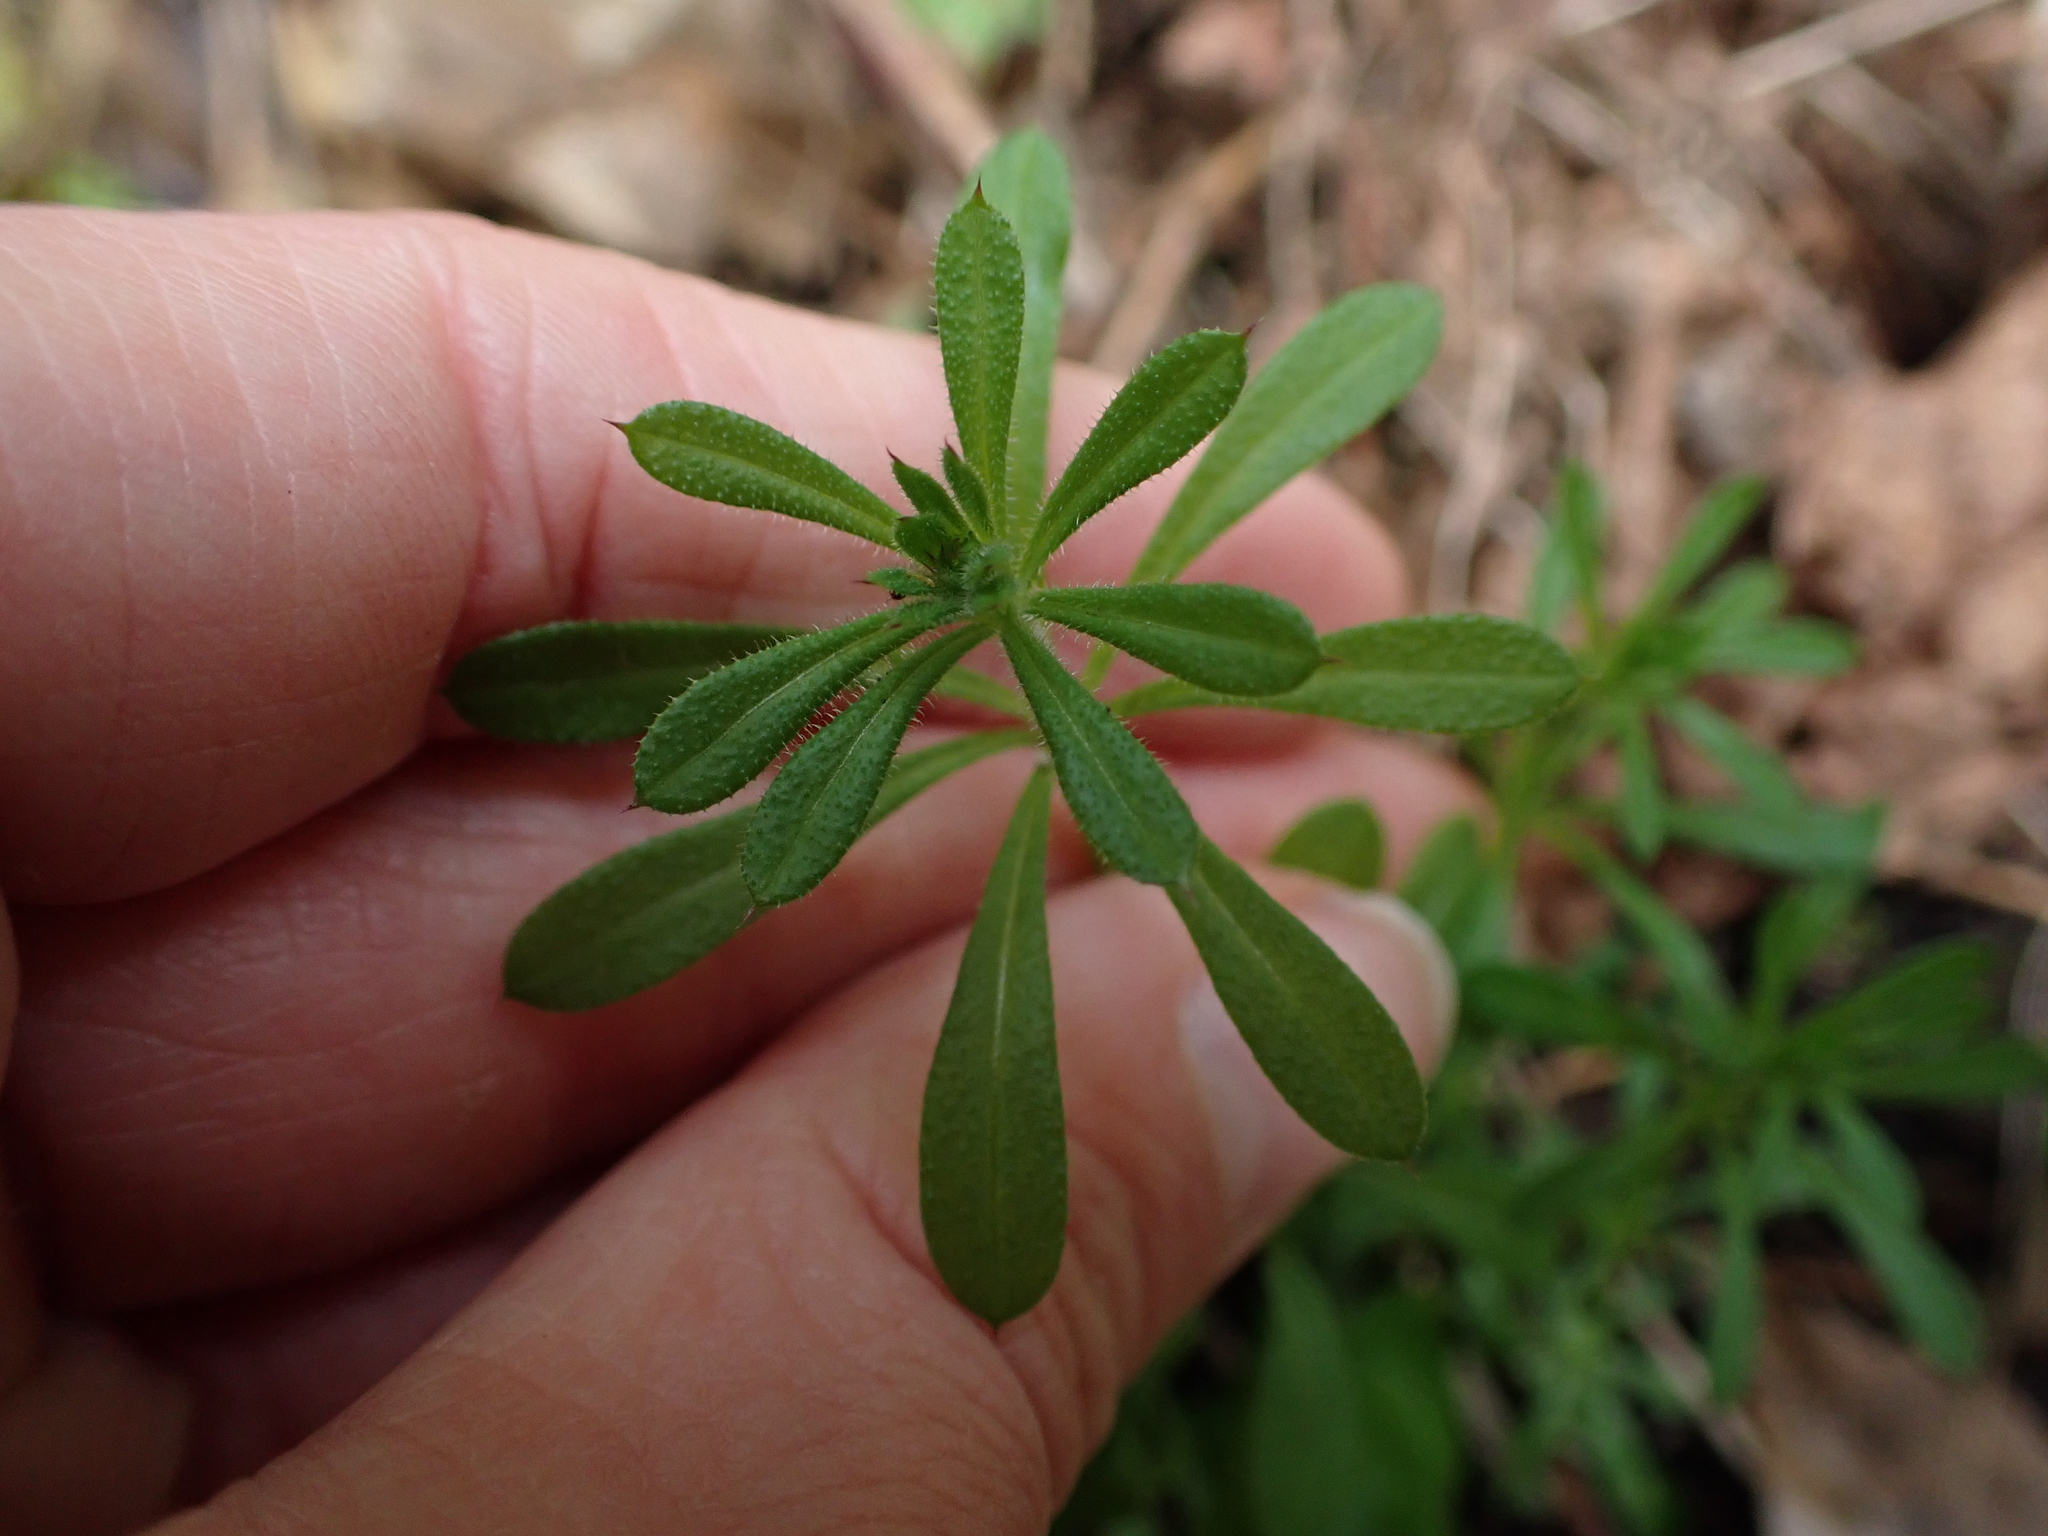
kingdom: Plantae
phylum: Tracheophyta
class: Magnoliopsida
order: Gentianales
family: Rubiaceae
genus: Galium
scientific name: Galium aparine
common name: Cleavers
